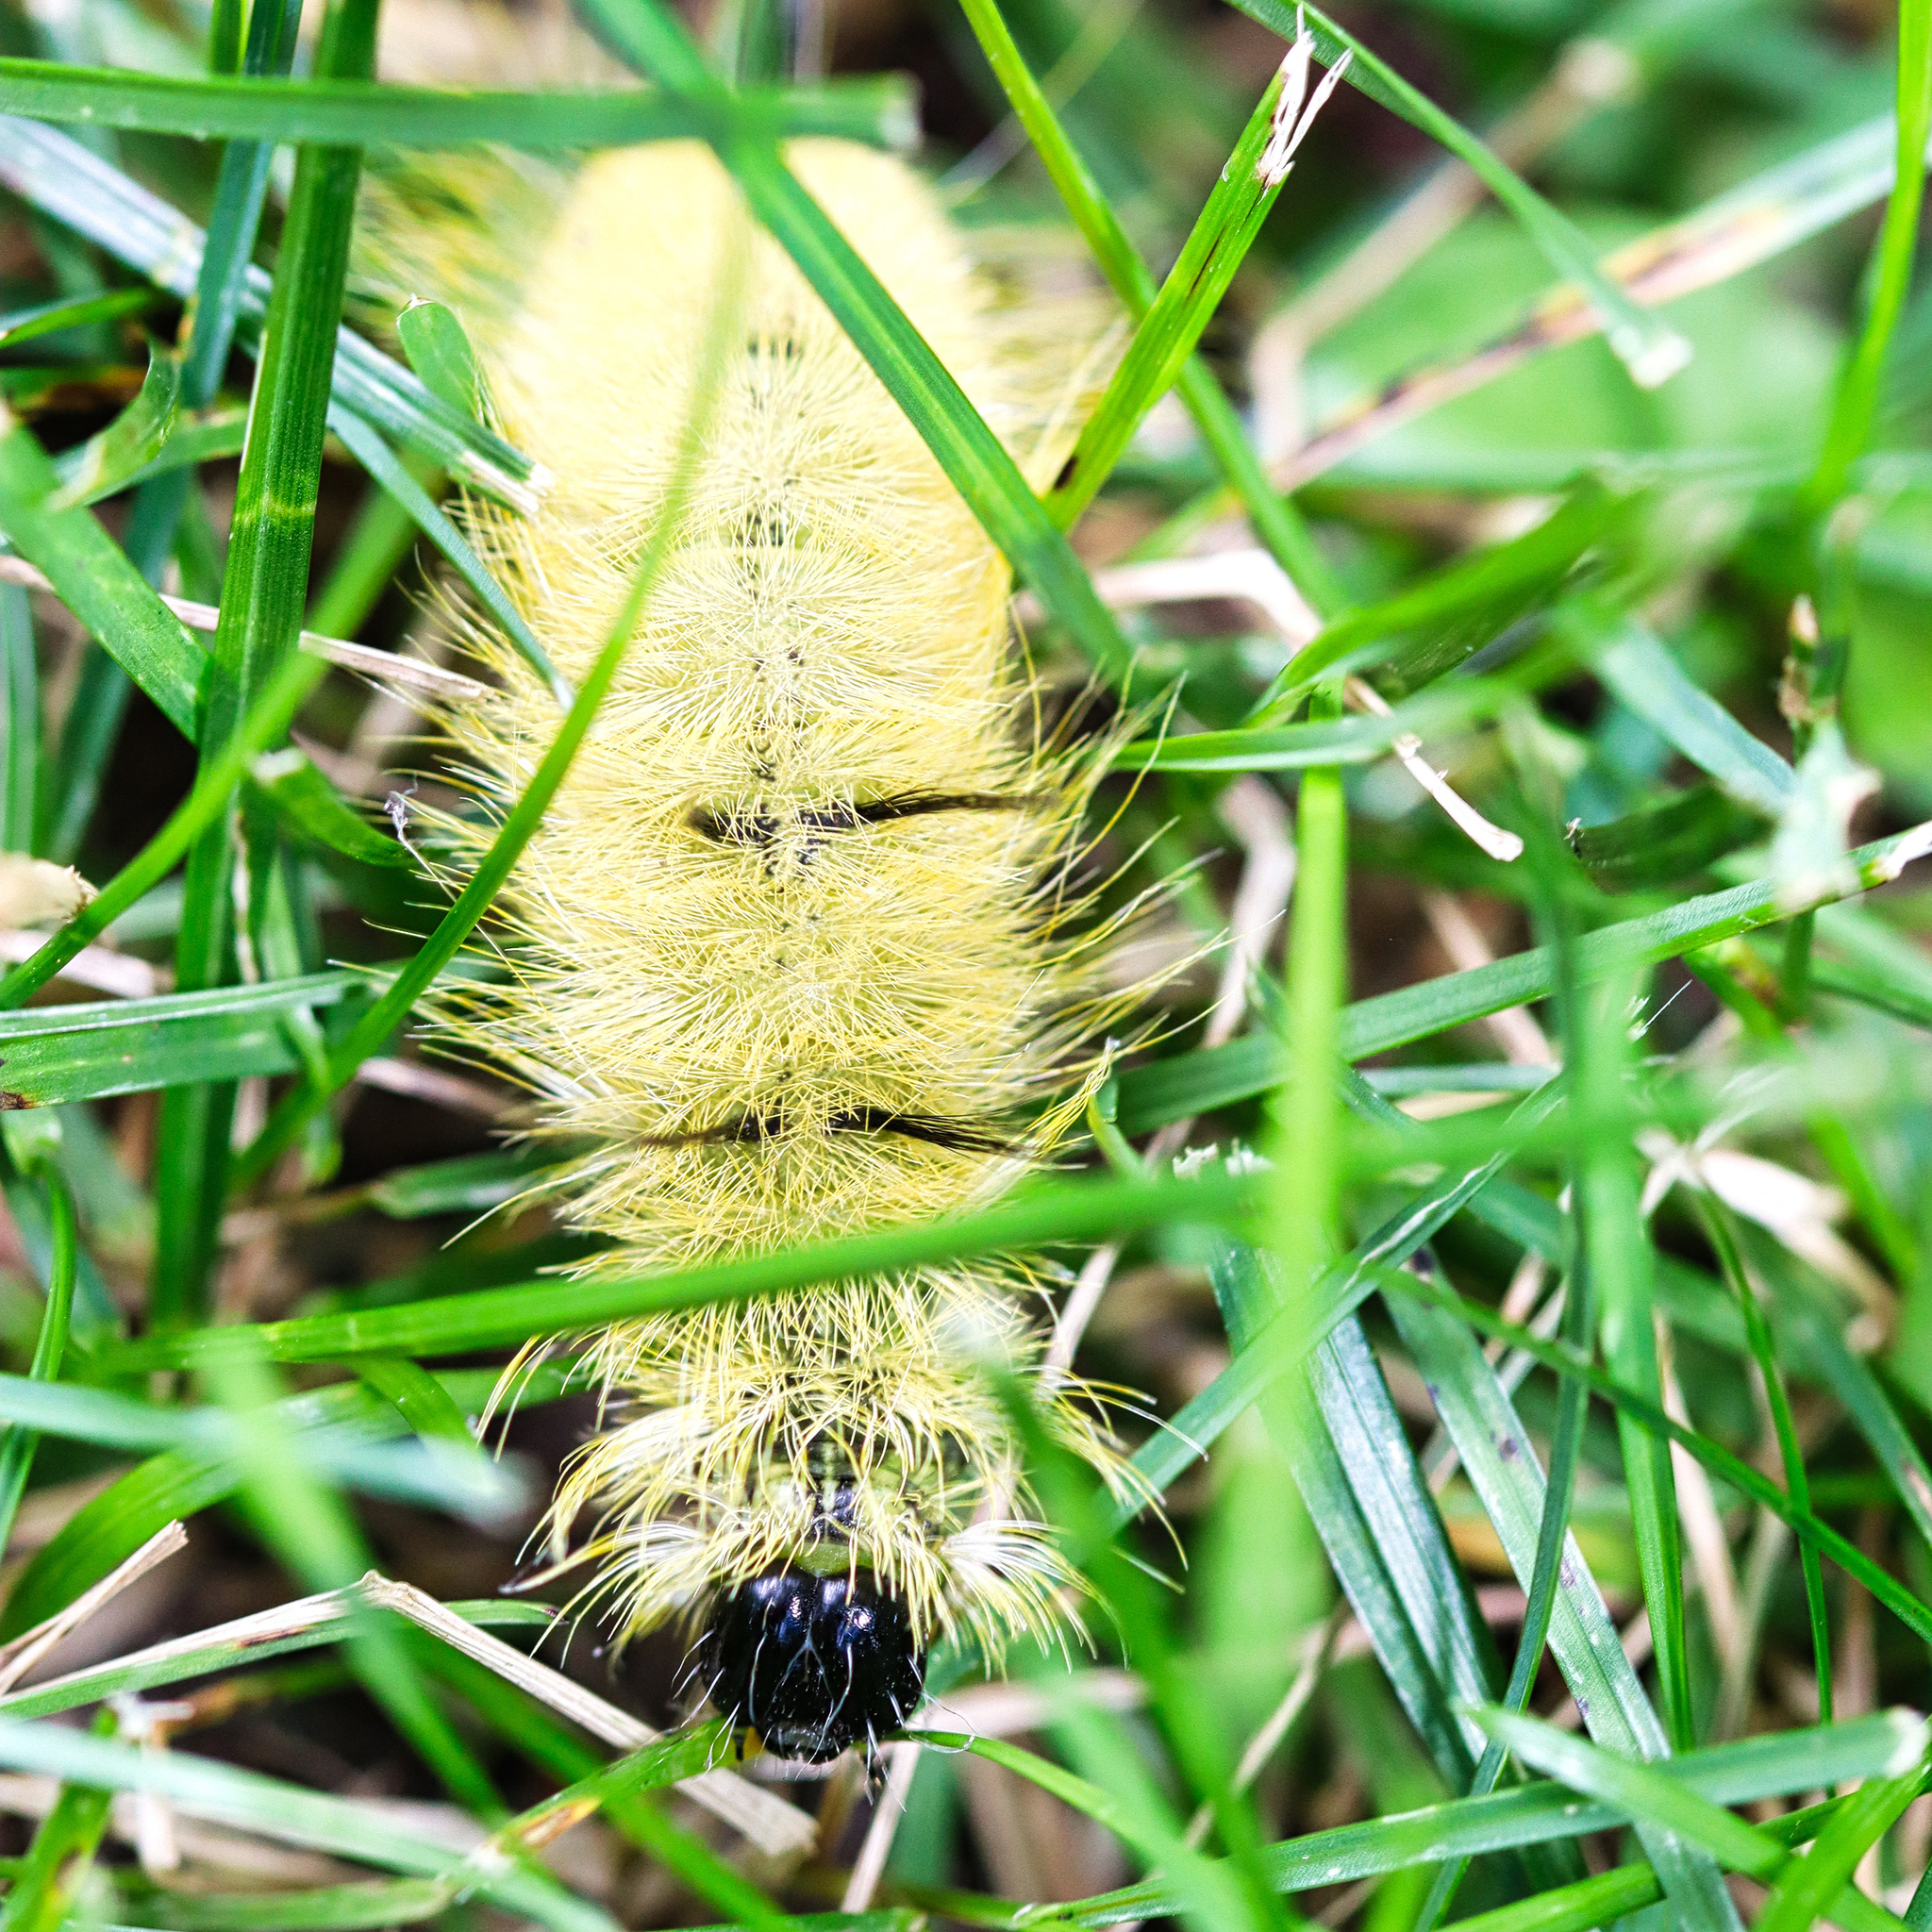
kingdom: Animalia
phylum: Arthropoda
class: Insecta
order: Lepidoptera
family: Noctuidae
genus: Acronicta
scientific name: Acronicta americana
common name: American dagger
